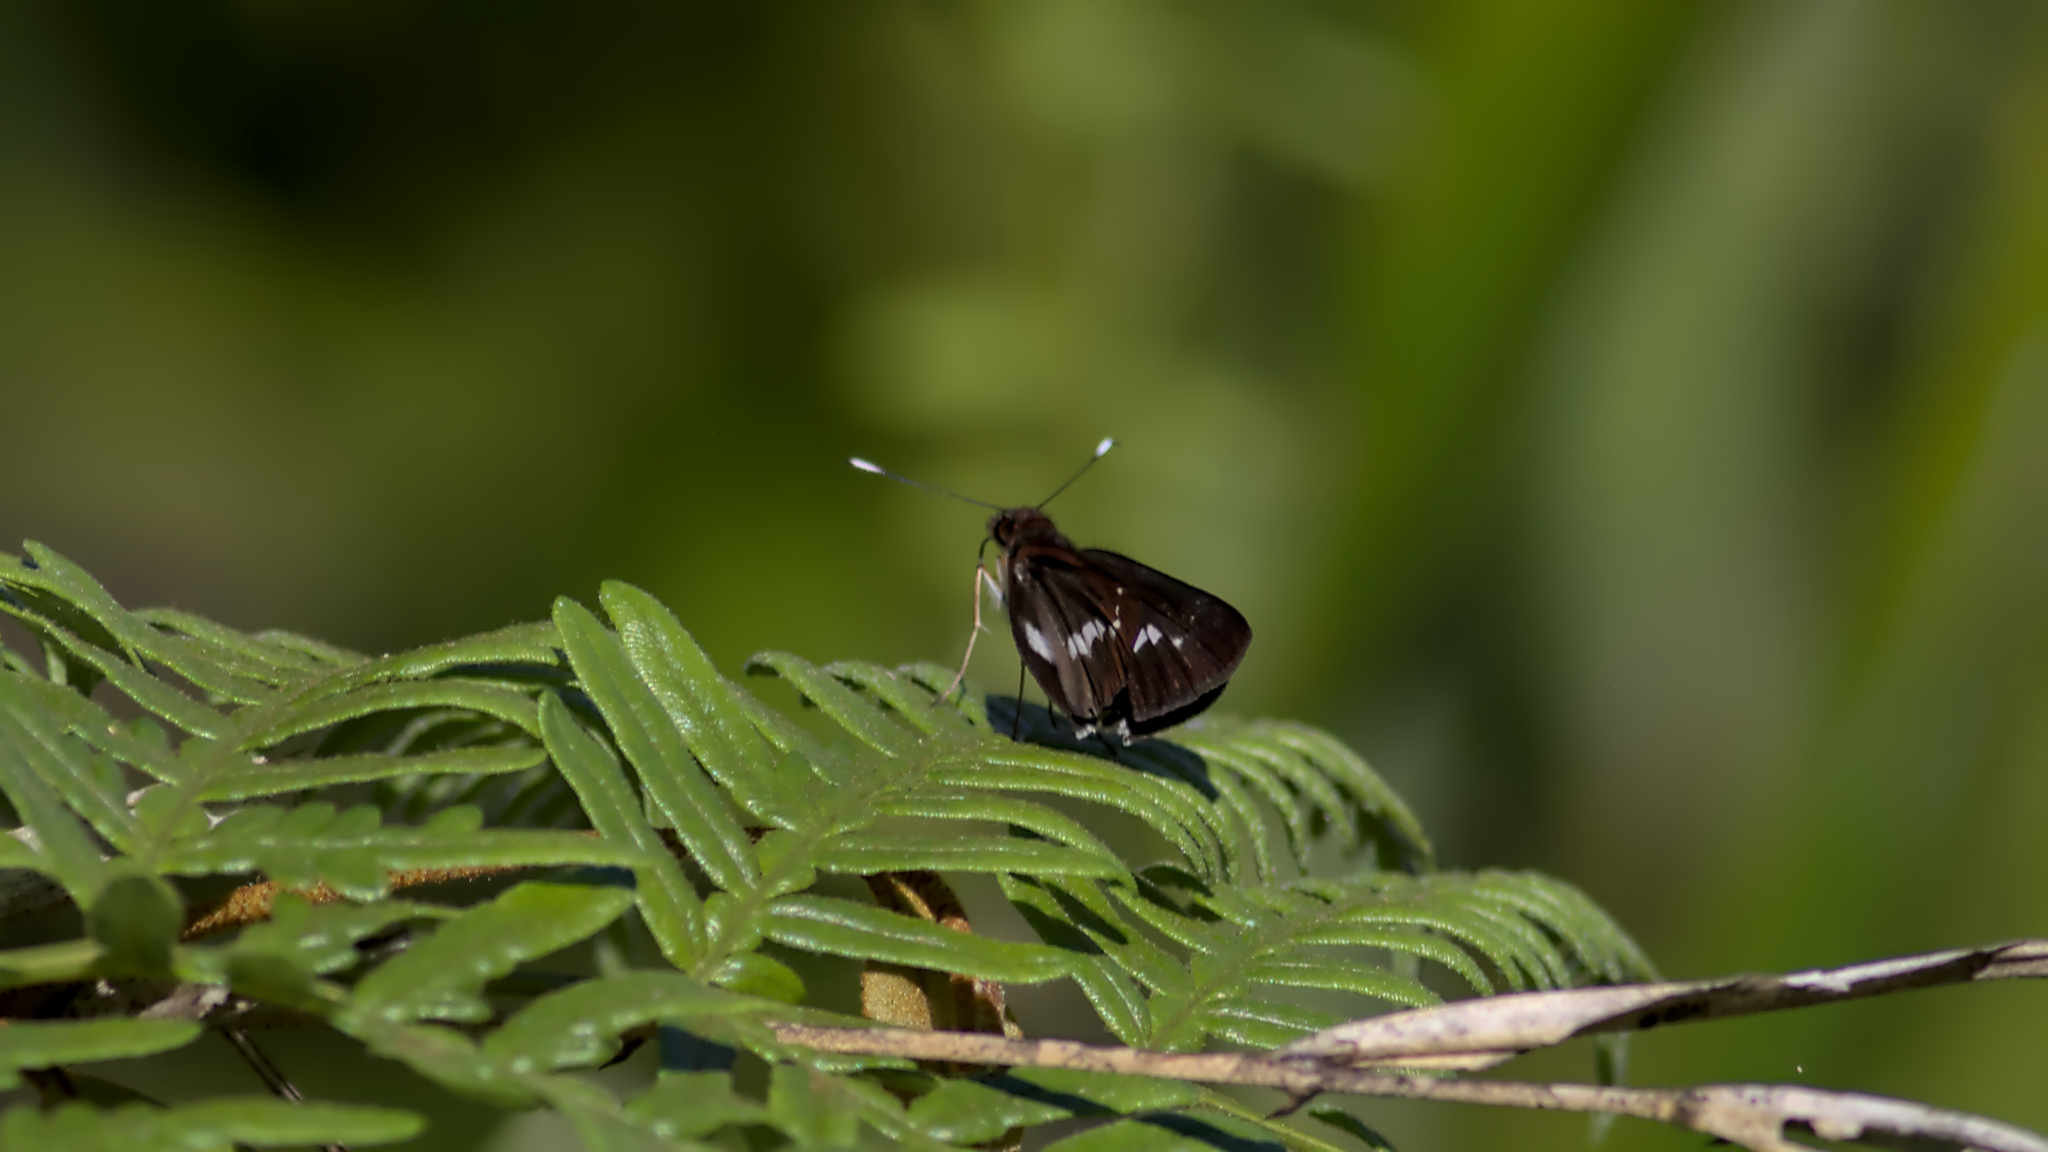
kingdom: Animalia
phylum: Arthropoda
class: Insecta
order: Lepidoptera
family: Hesperiidae
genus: Sabera
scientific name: Sabera caesina
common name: White-clubbed swift
